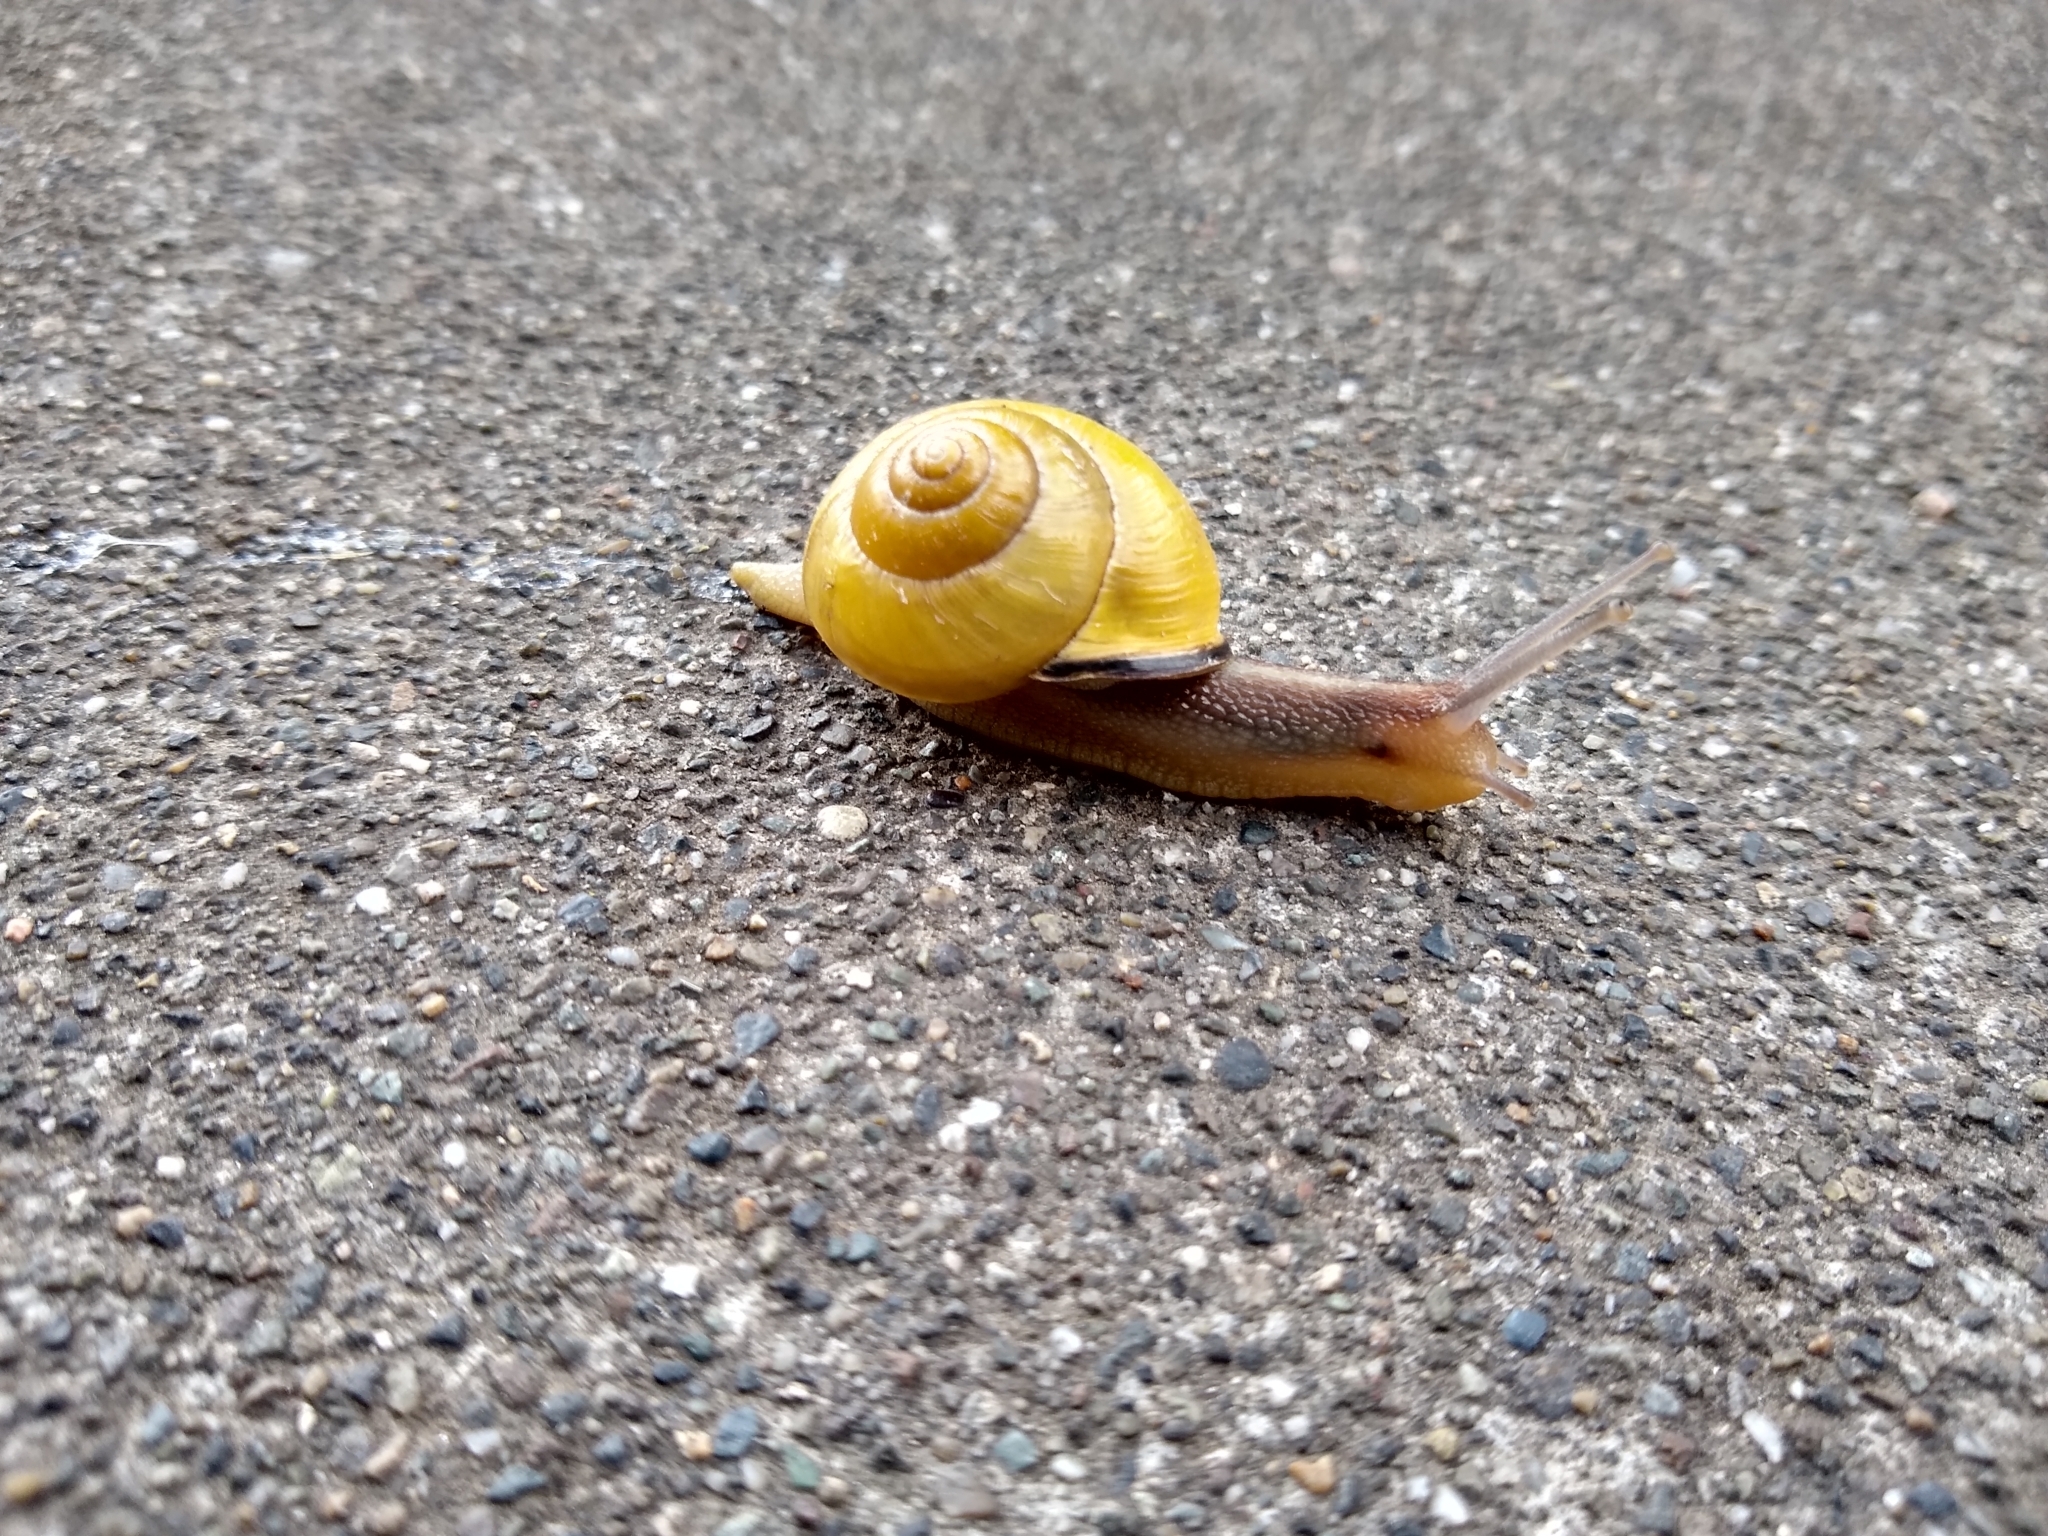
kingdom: Animalia
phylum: Mollusca
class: Gastropoda
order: Stylommatophora
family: Helicidae
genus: Cepaea
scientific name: Cepaea nemoralis
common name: Grovesnail
